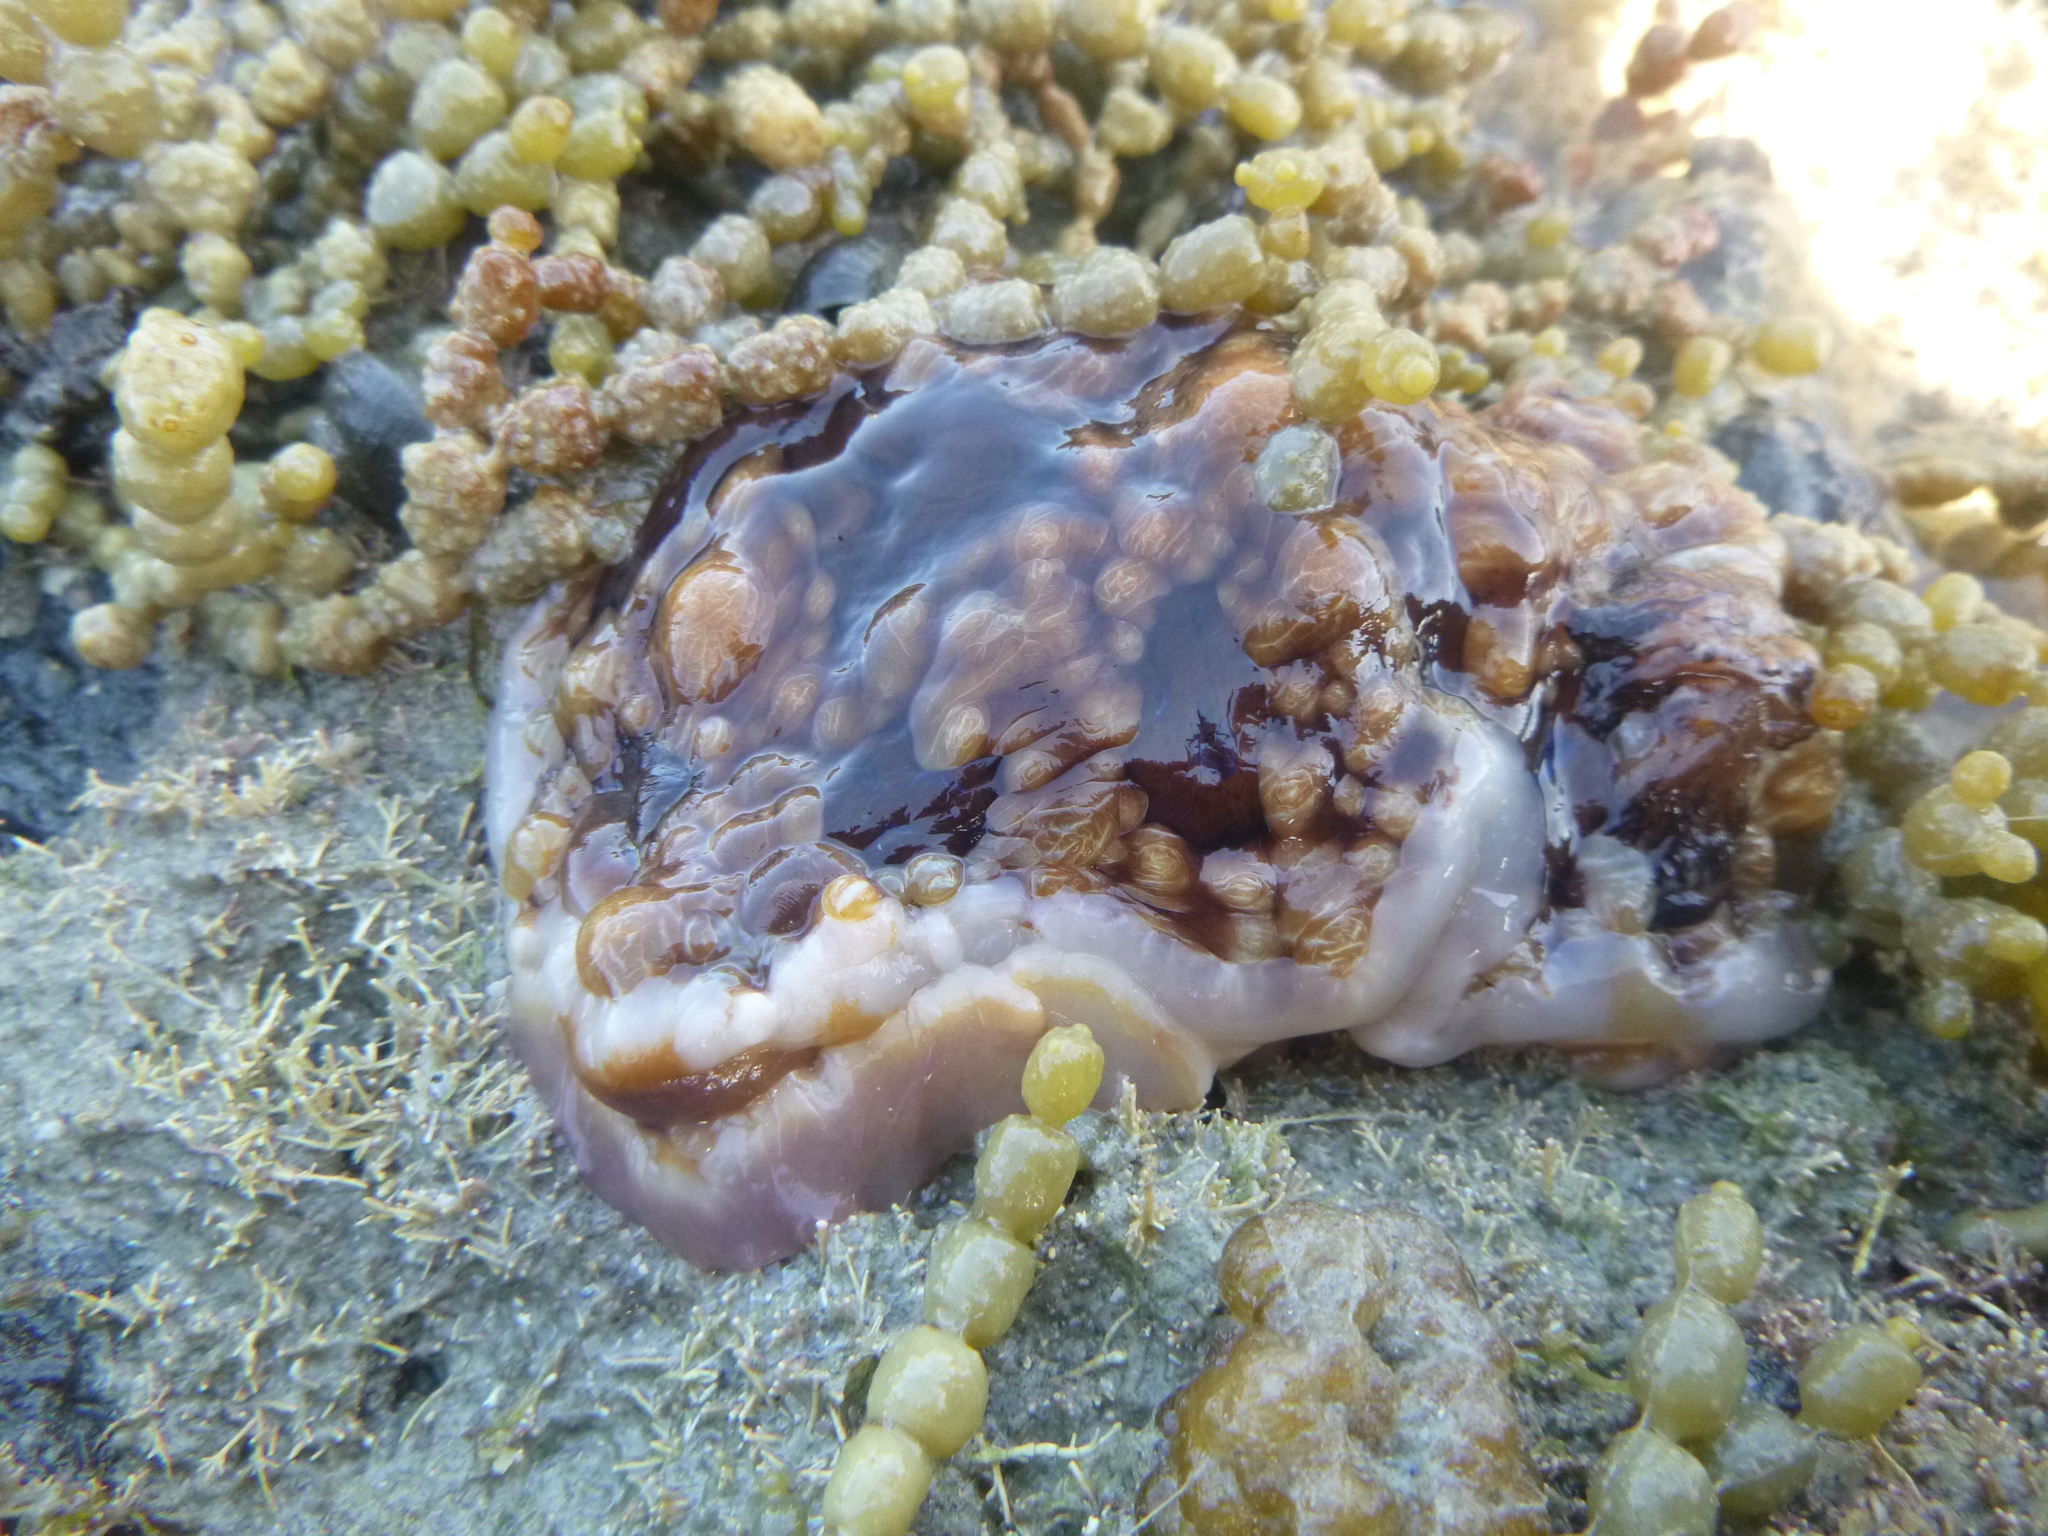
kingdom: Animalia
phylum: Mollusca
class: Gastropoda
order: Nudibranchia
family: Dendrodorididae
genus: Dendrodoris
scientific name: Dendrodoris krusensternii
